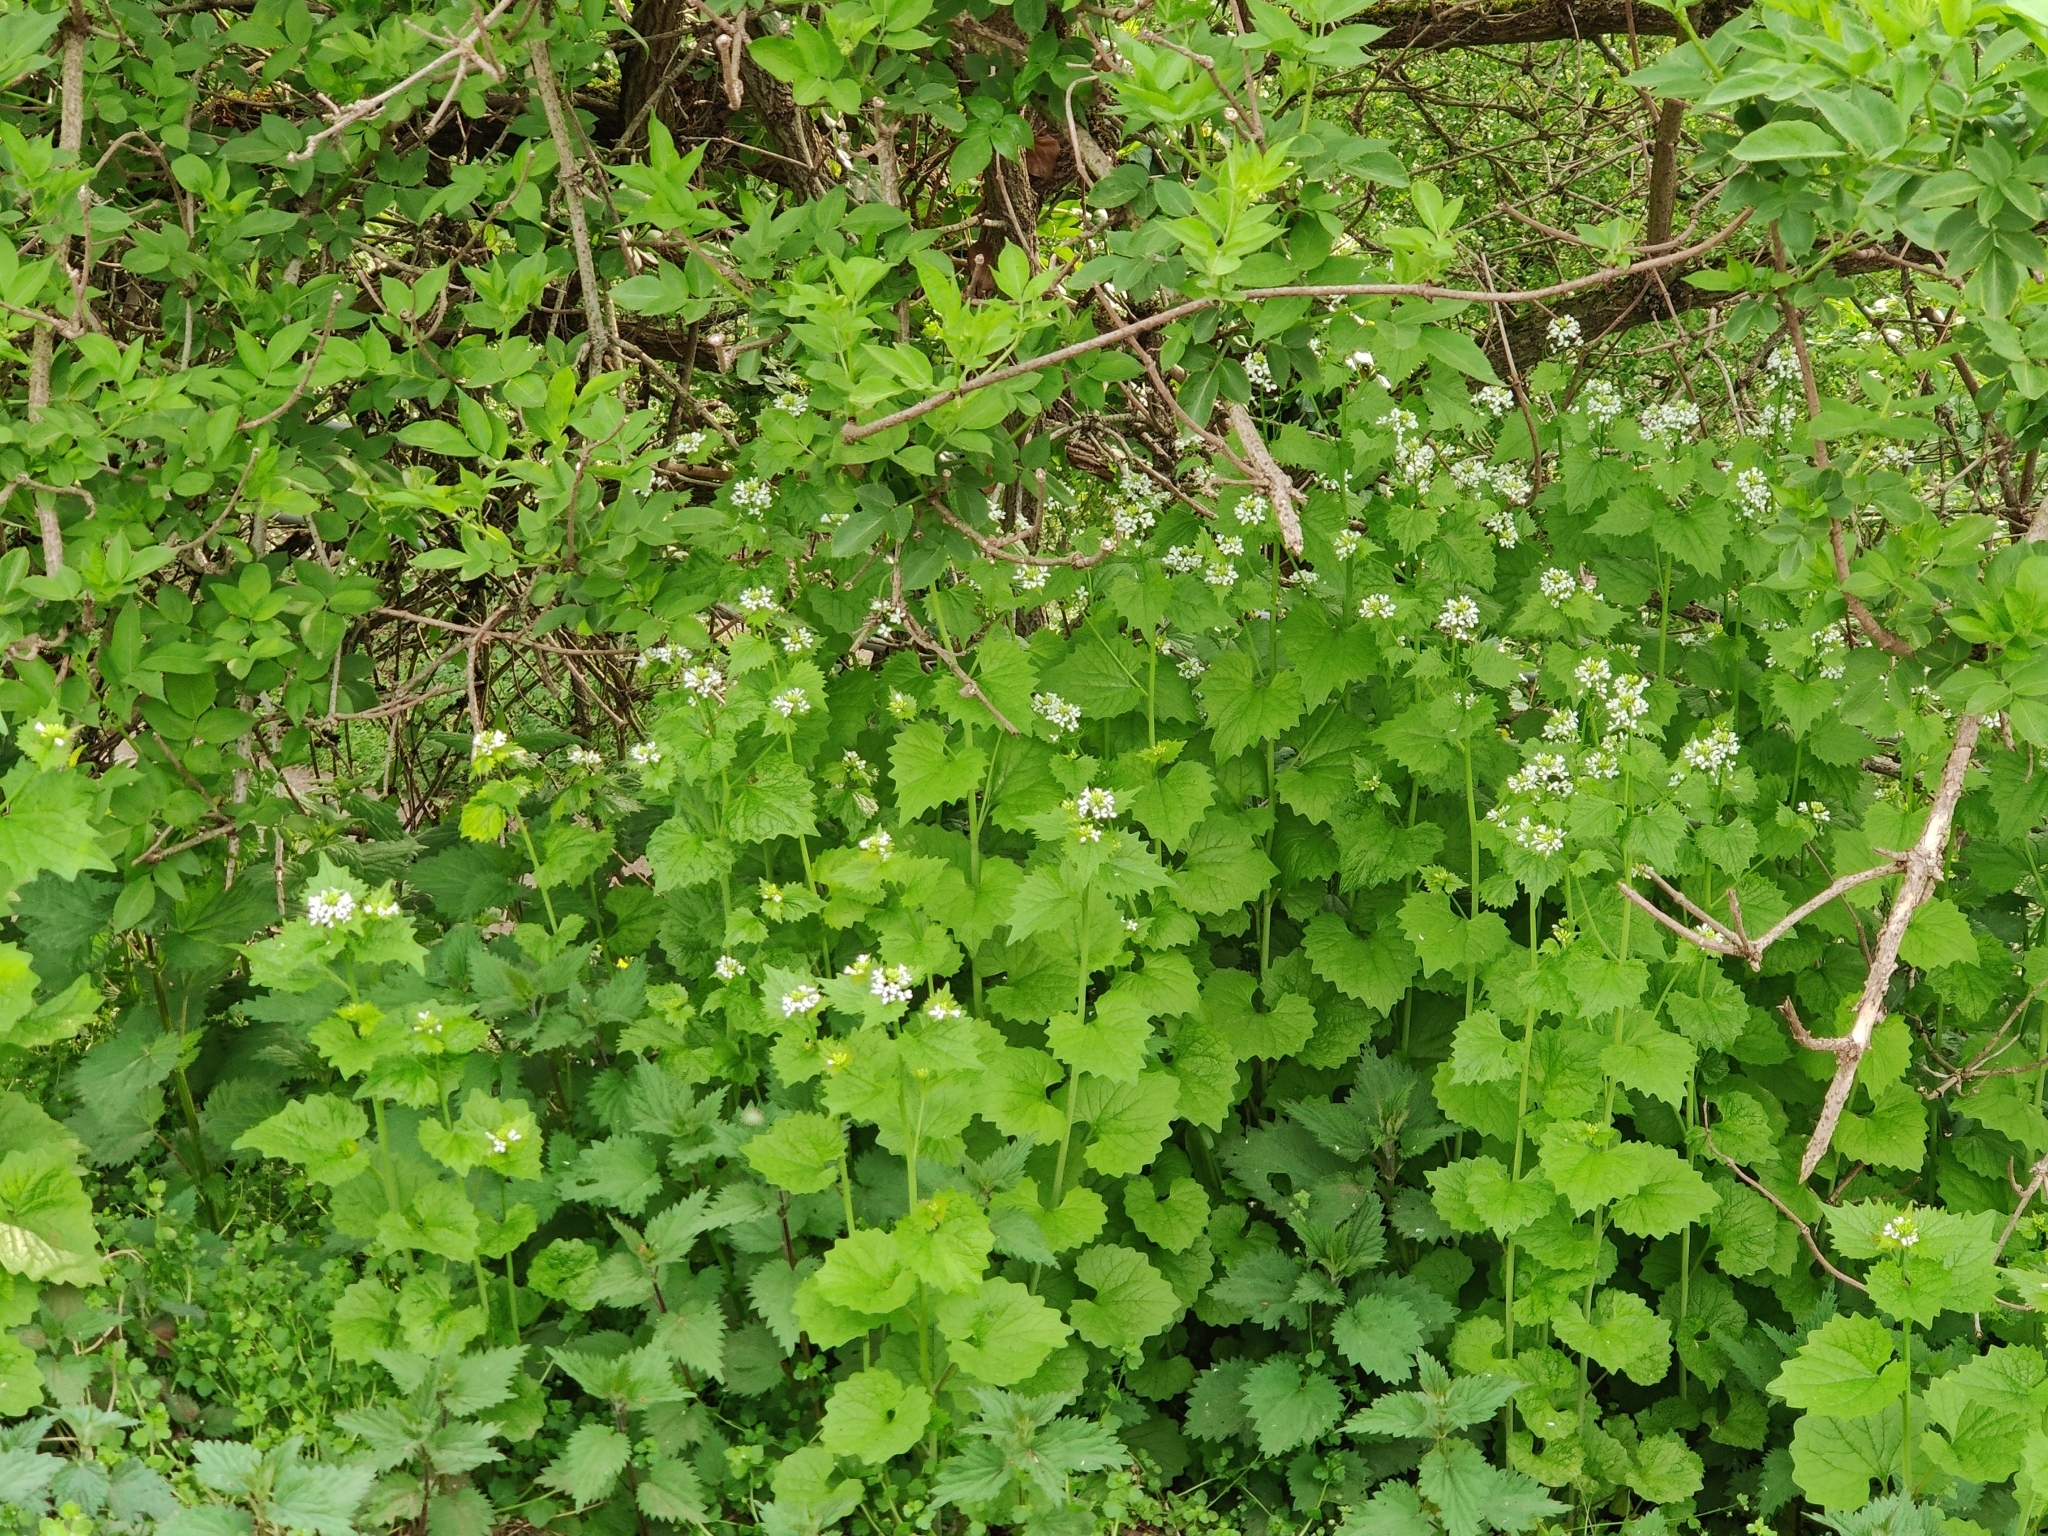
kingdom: Plantae
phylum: Tracheophyta
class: Magnoliopsida
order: Brassicales
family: Brassicaceae
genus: Alliaria
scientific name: Alliaria petiolata
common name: Garlic mustard
